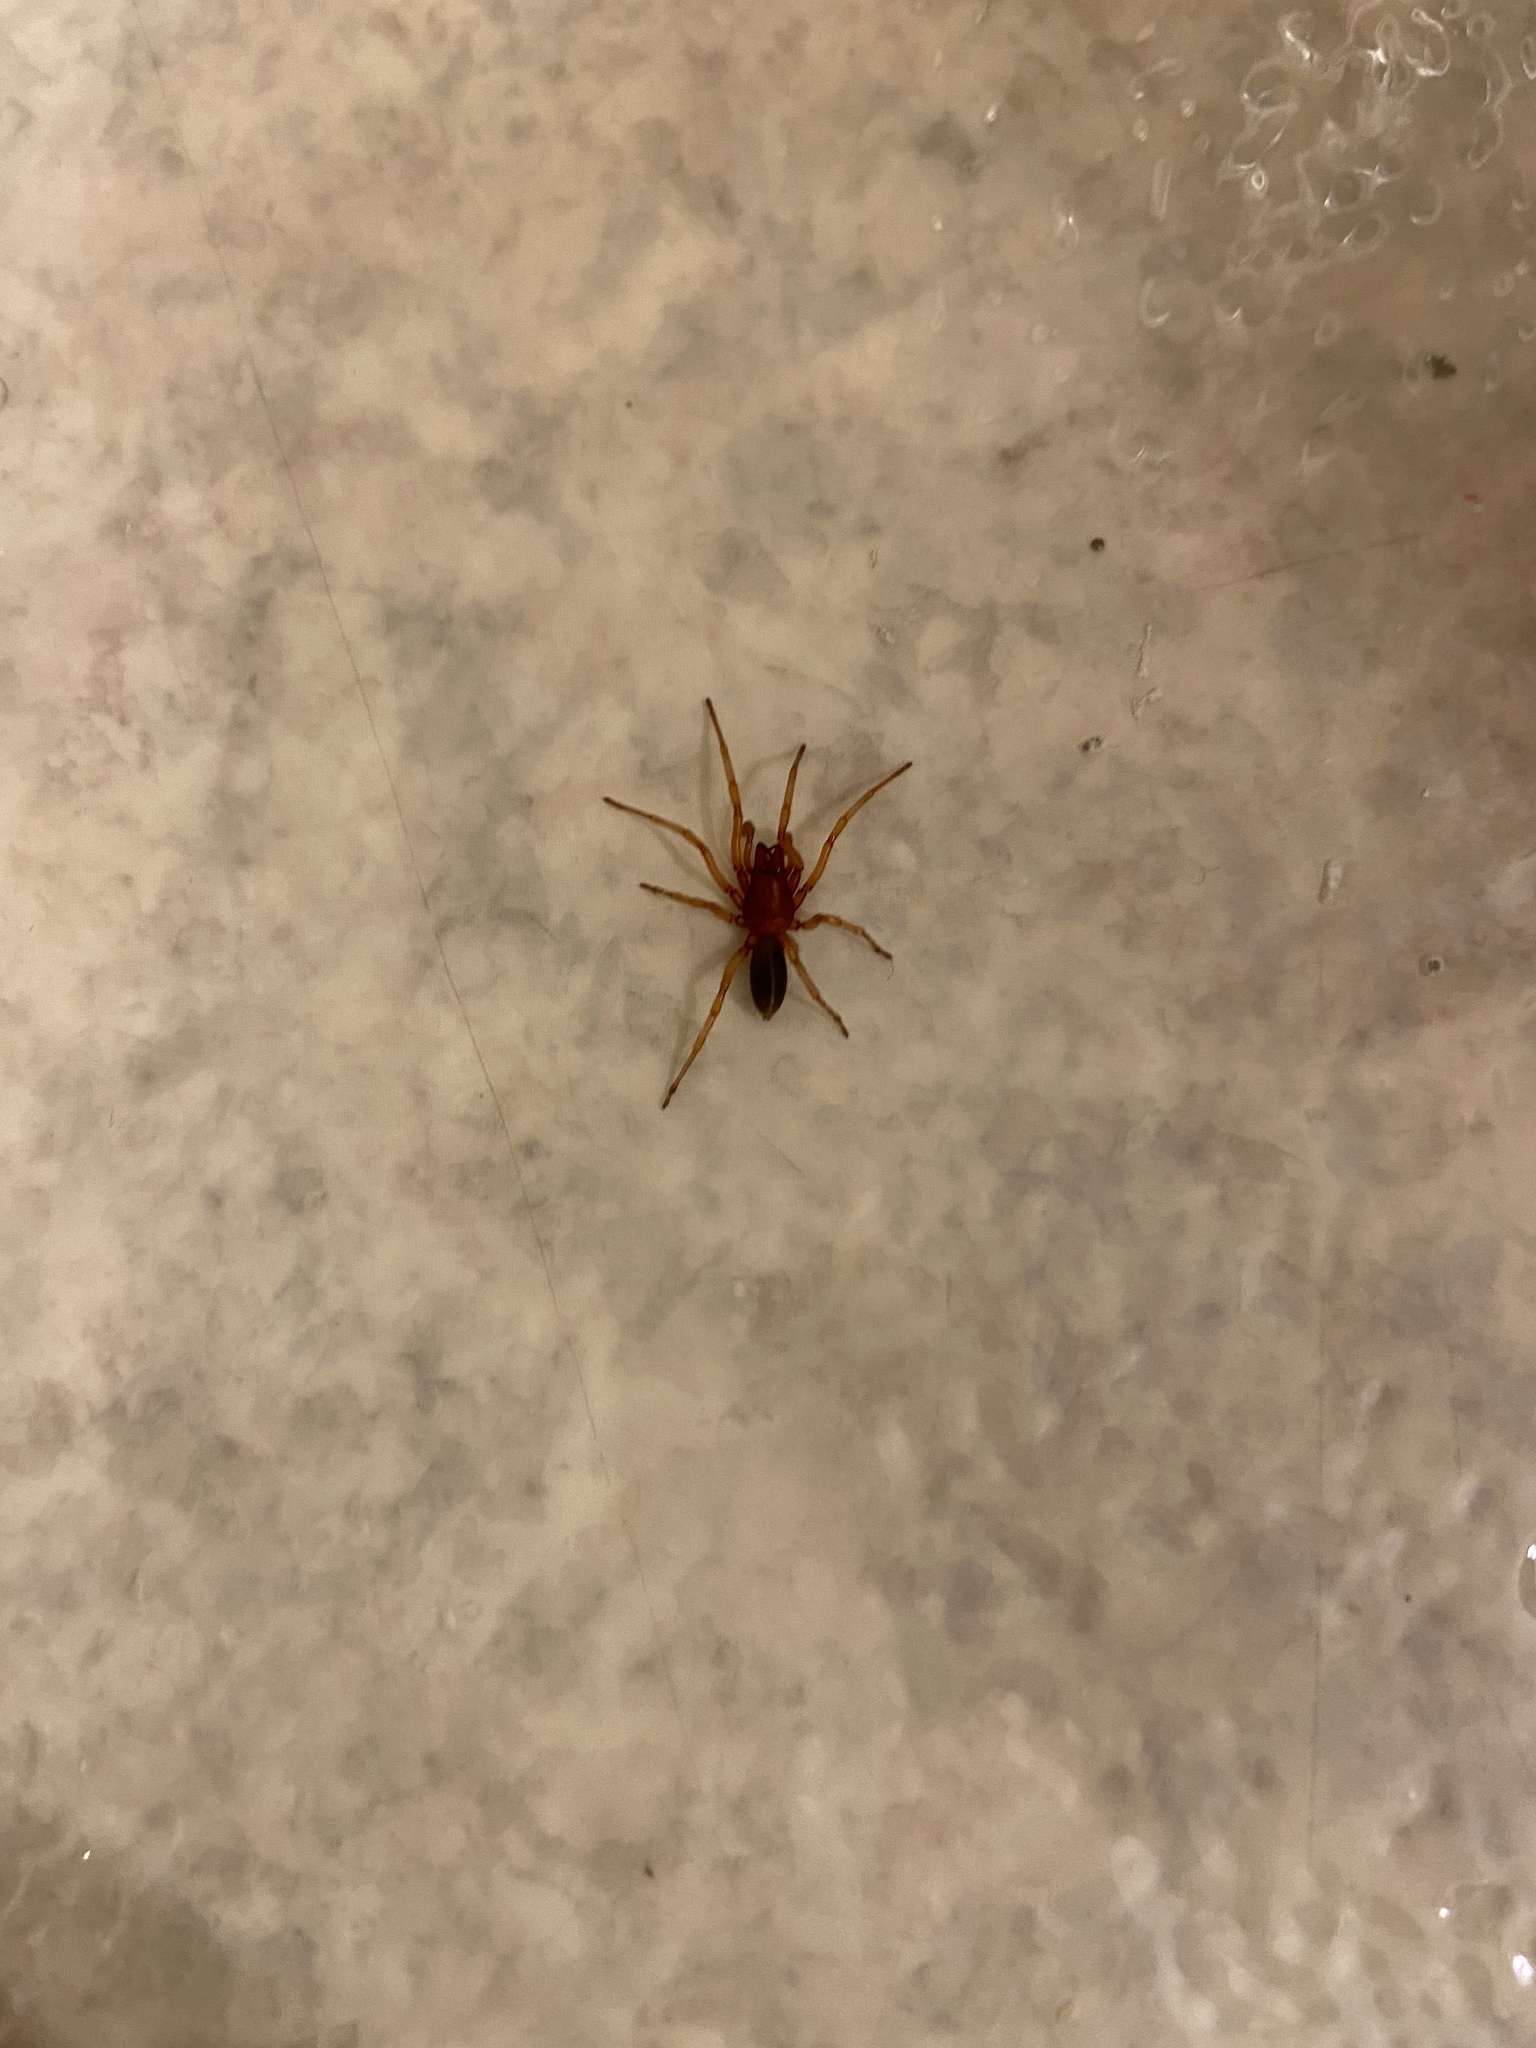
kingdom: Animalia
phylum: Arthropoda
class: Arachnida
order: Araneae
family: Dysderidae
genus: Dysdera
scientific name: Dysdera crocata
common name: Woodlouse spider
